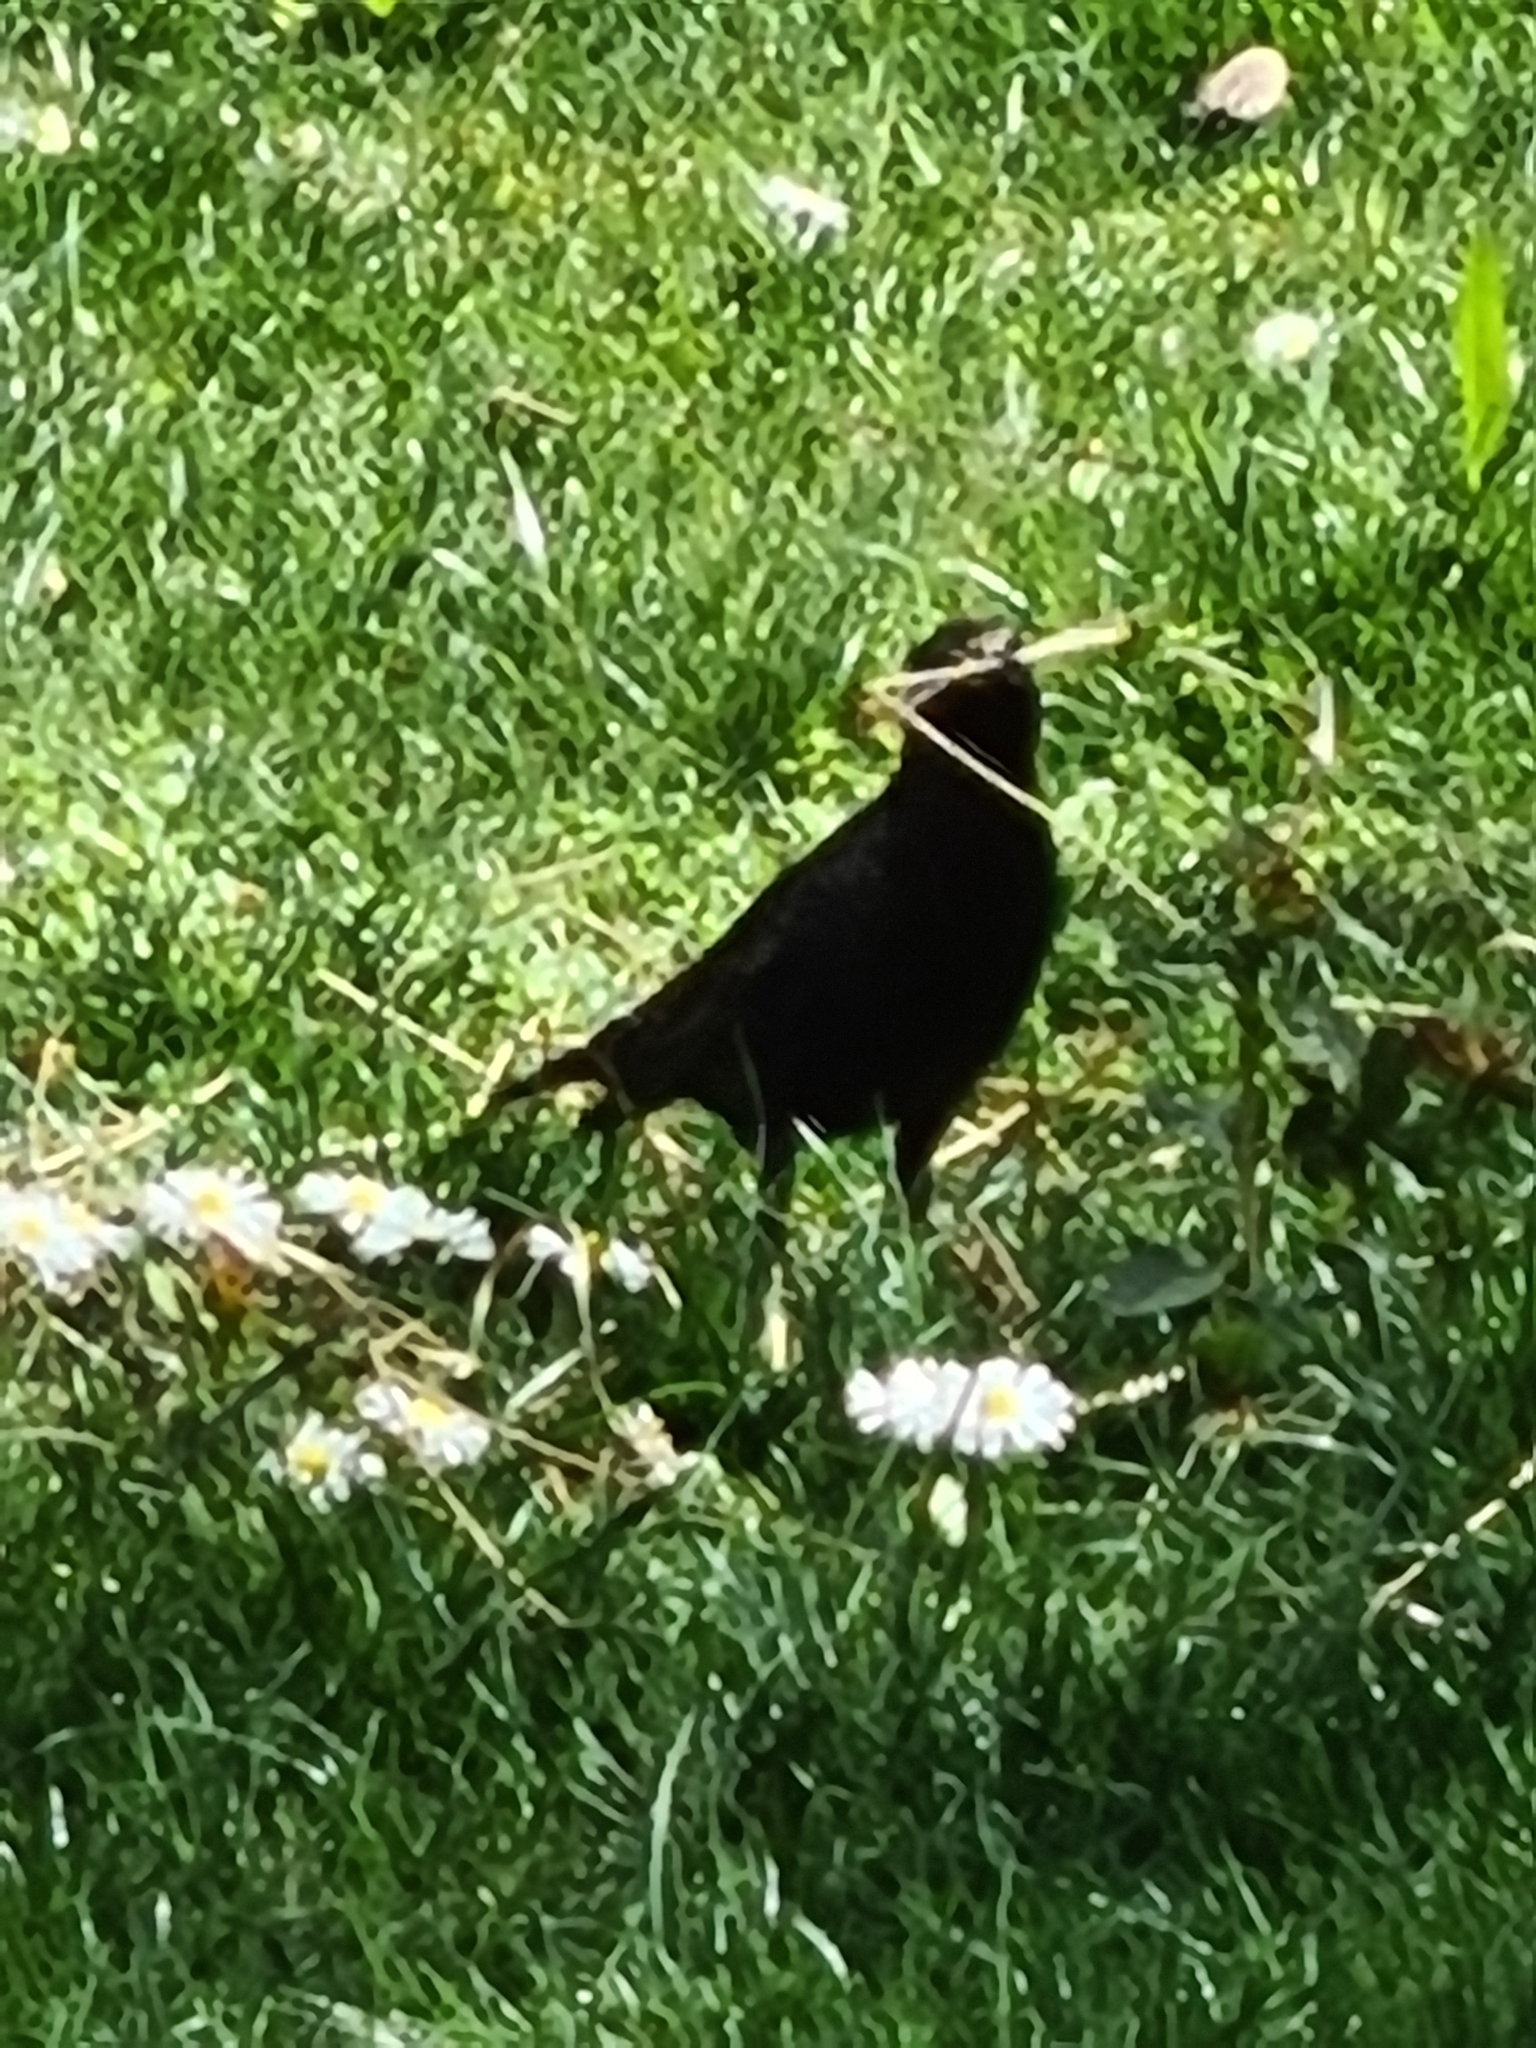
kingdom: Animalia
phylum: Chordata
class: Aves
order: Passeriformes
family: Sturnidae
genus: Sturnus
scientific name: Sturnus vulgaris
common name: Common starling
